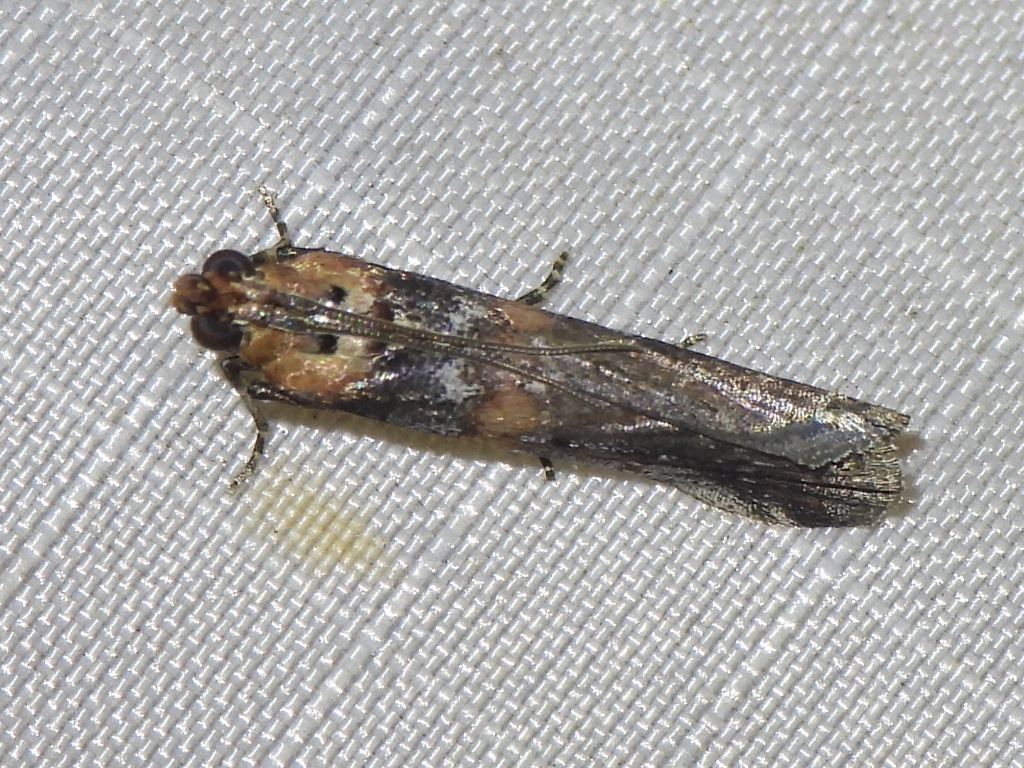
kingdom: Animalia
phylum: Arthropoda
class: Insecta
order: Lepidoptera
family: Pyralidae
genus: Adelphia
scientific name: Adelphia petrella
